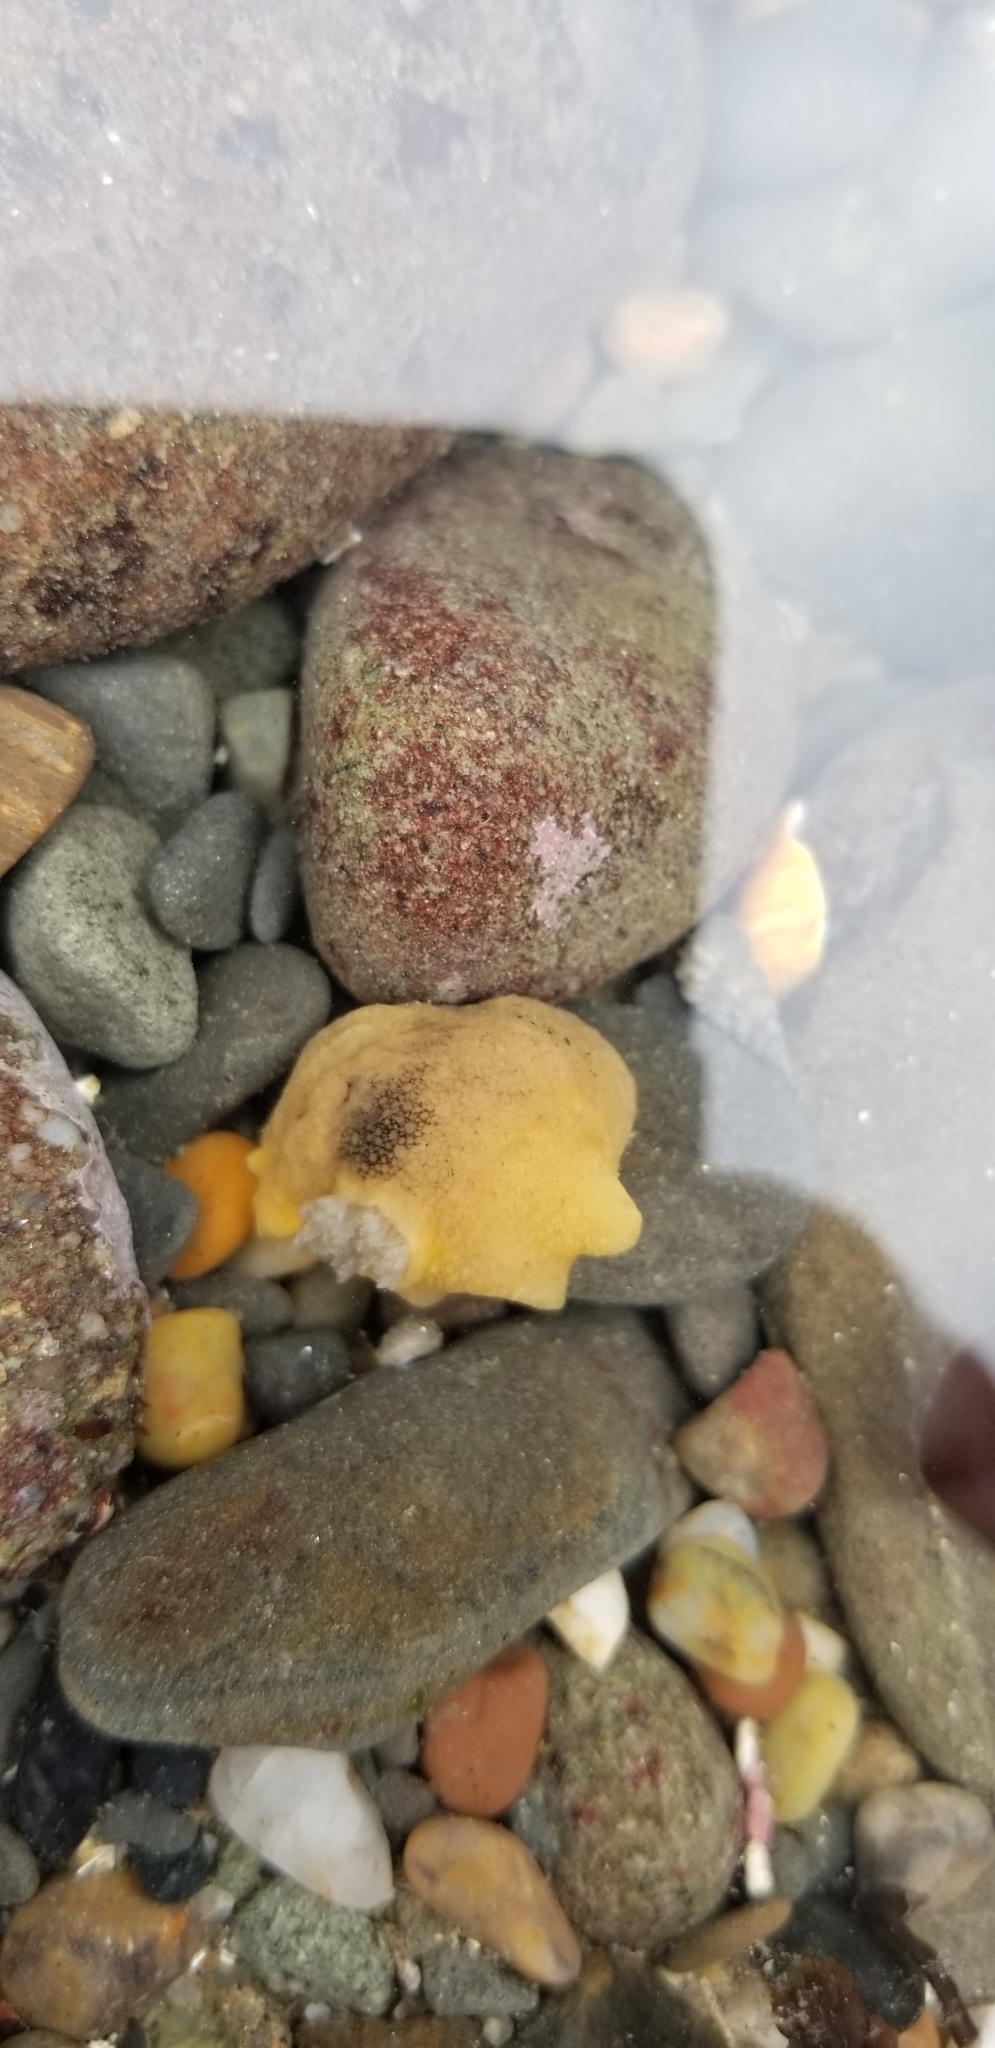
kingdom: Animalia
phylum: Mollusca
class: Gastropoda
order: Nudibranchia
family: Discodorididae
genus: Geitodoris
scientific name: Geitodoris heathi
